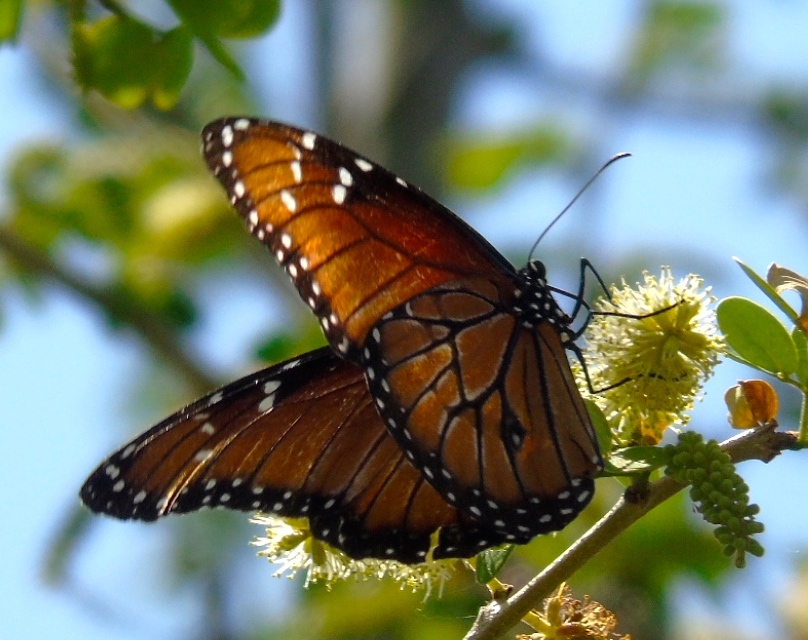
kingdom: Animalia
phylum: Arthropoda
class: Insecta
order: Lepidoptera
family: Nymphalidae
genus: Danaus
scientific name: Danaus eresimus
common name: Soldier
